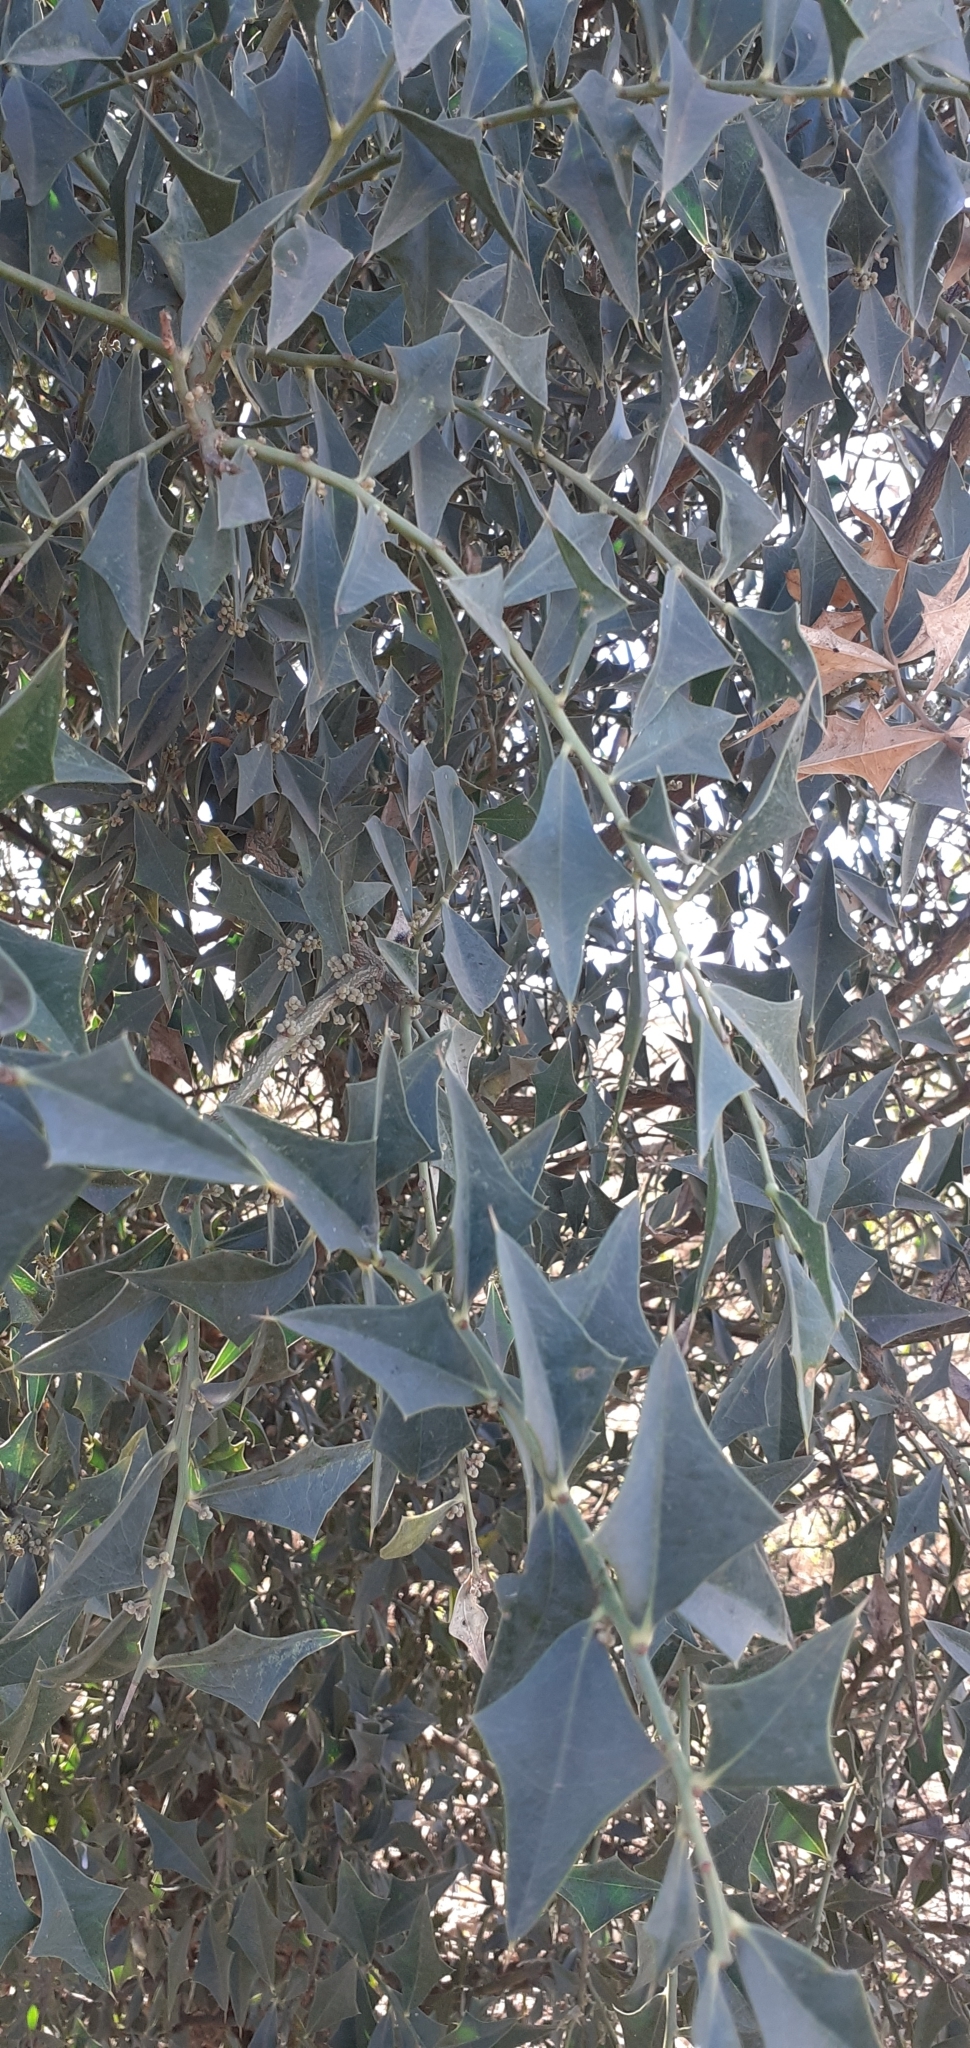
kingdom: Plantae
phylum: Tracheophyta
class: Magnoliopsida
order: Santalales
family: Cervantesiaceae
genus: Jodina
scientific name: Jodina rhombifolia
